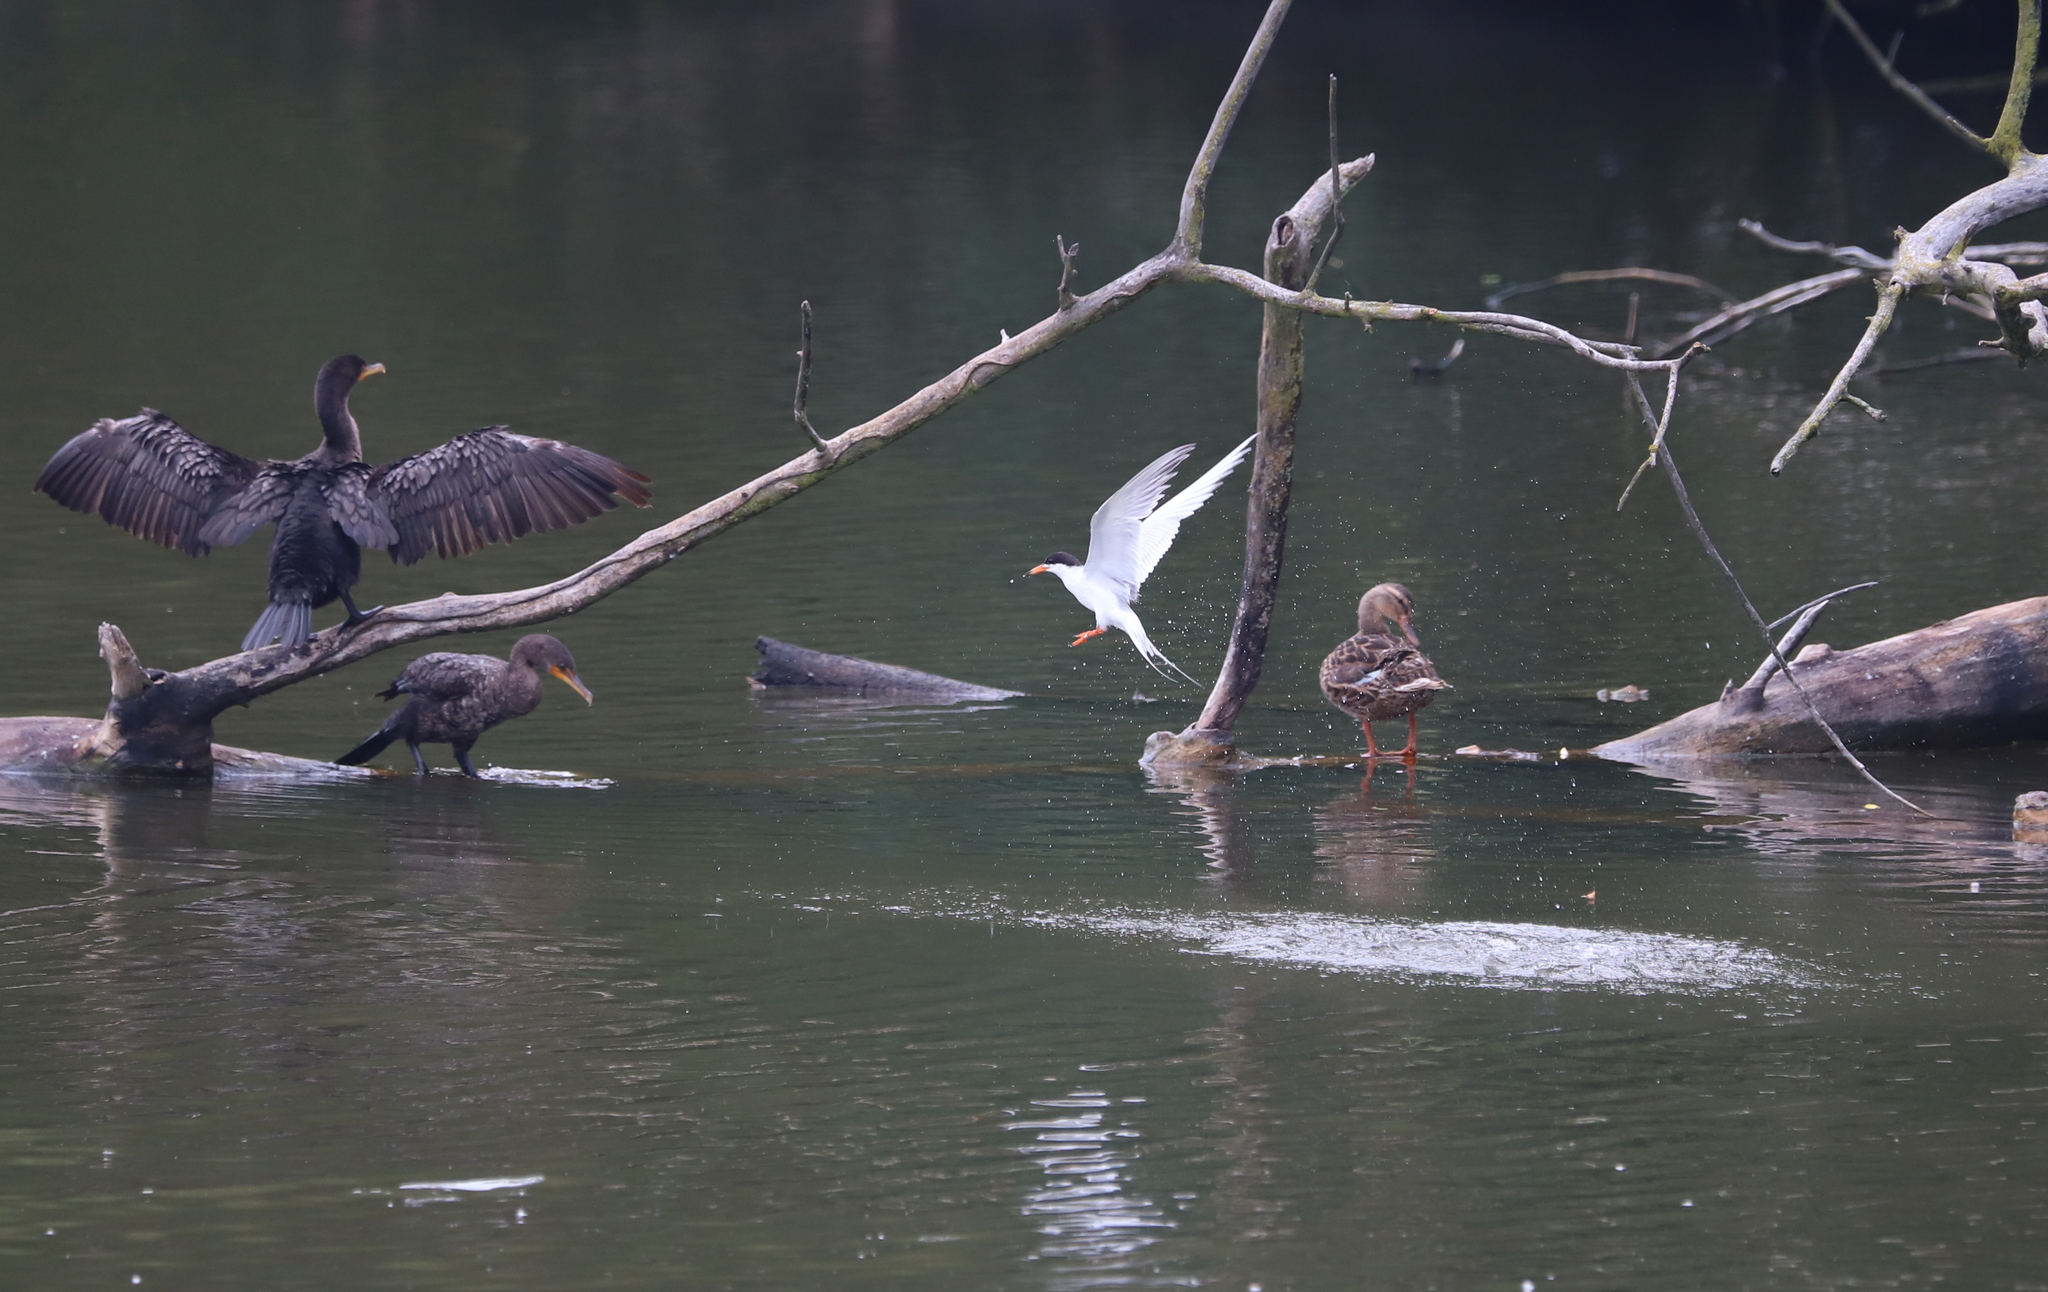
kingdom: Animalia
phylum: Chordata
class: Aves
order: Charadriiformes
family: Laridae
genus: Sterna
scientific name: Sterna forsteri
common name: Forster's tern
